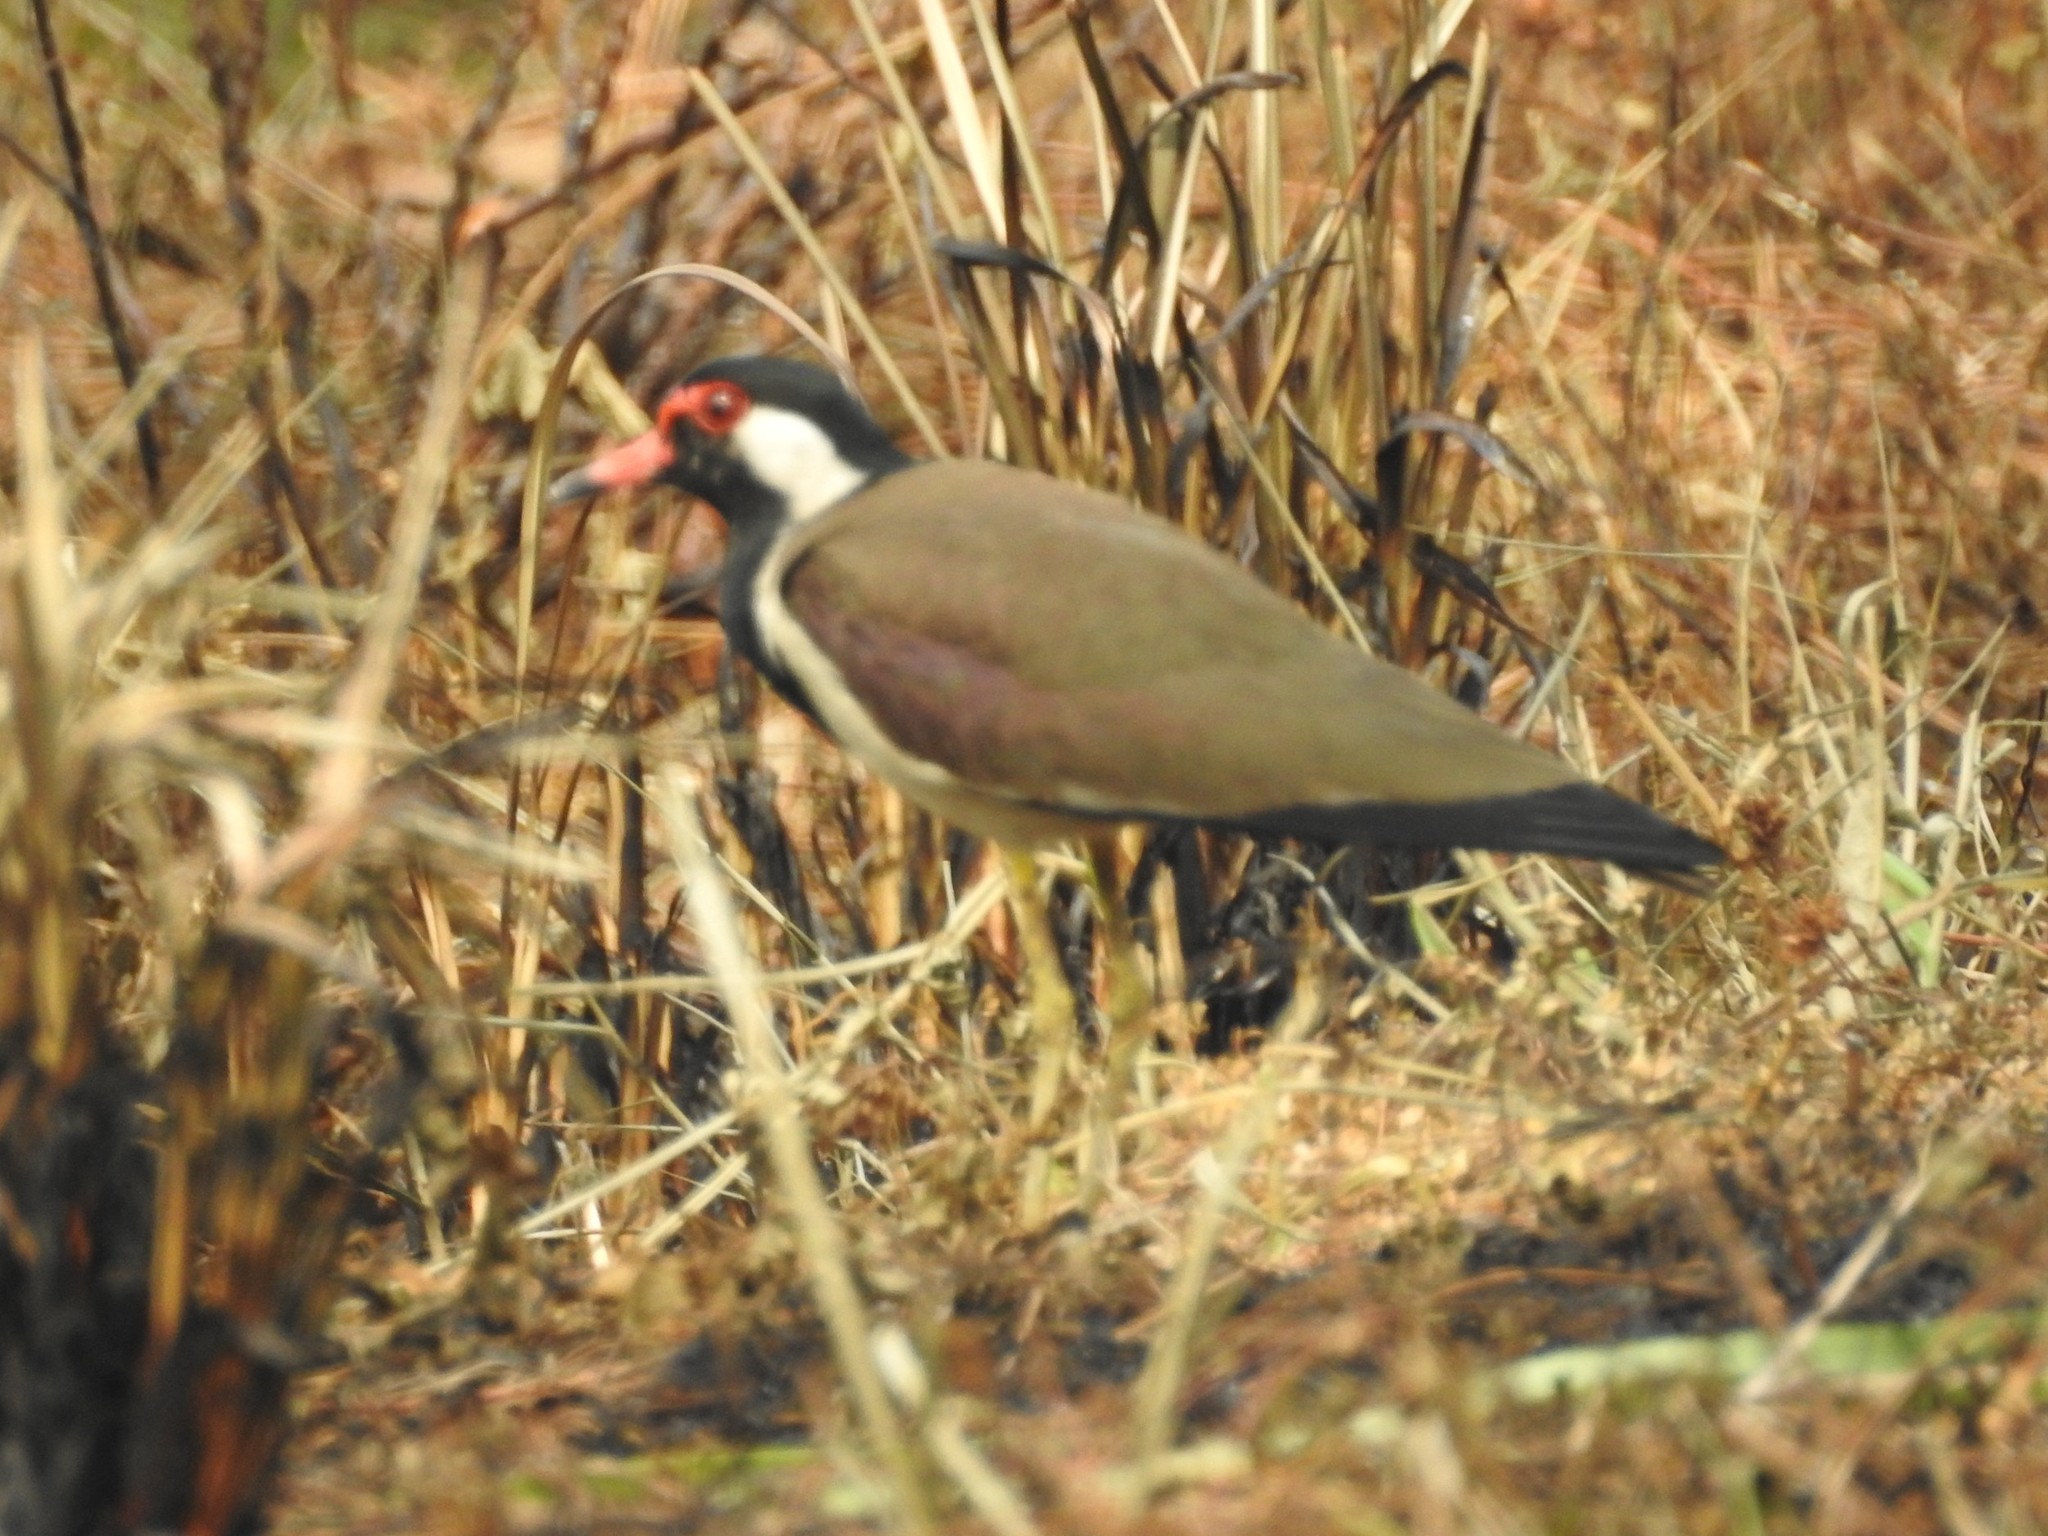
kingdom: Animalia
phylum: Chordata
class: Aves
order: Charadriiformes
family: Charadriidae
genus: Vanellus
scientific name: Vanellus indicus
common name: Red-wattled lapwing
